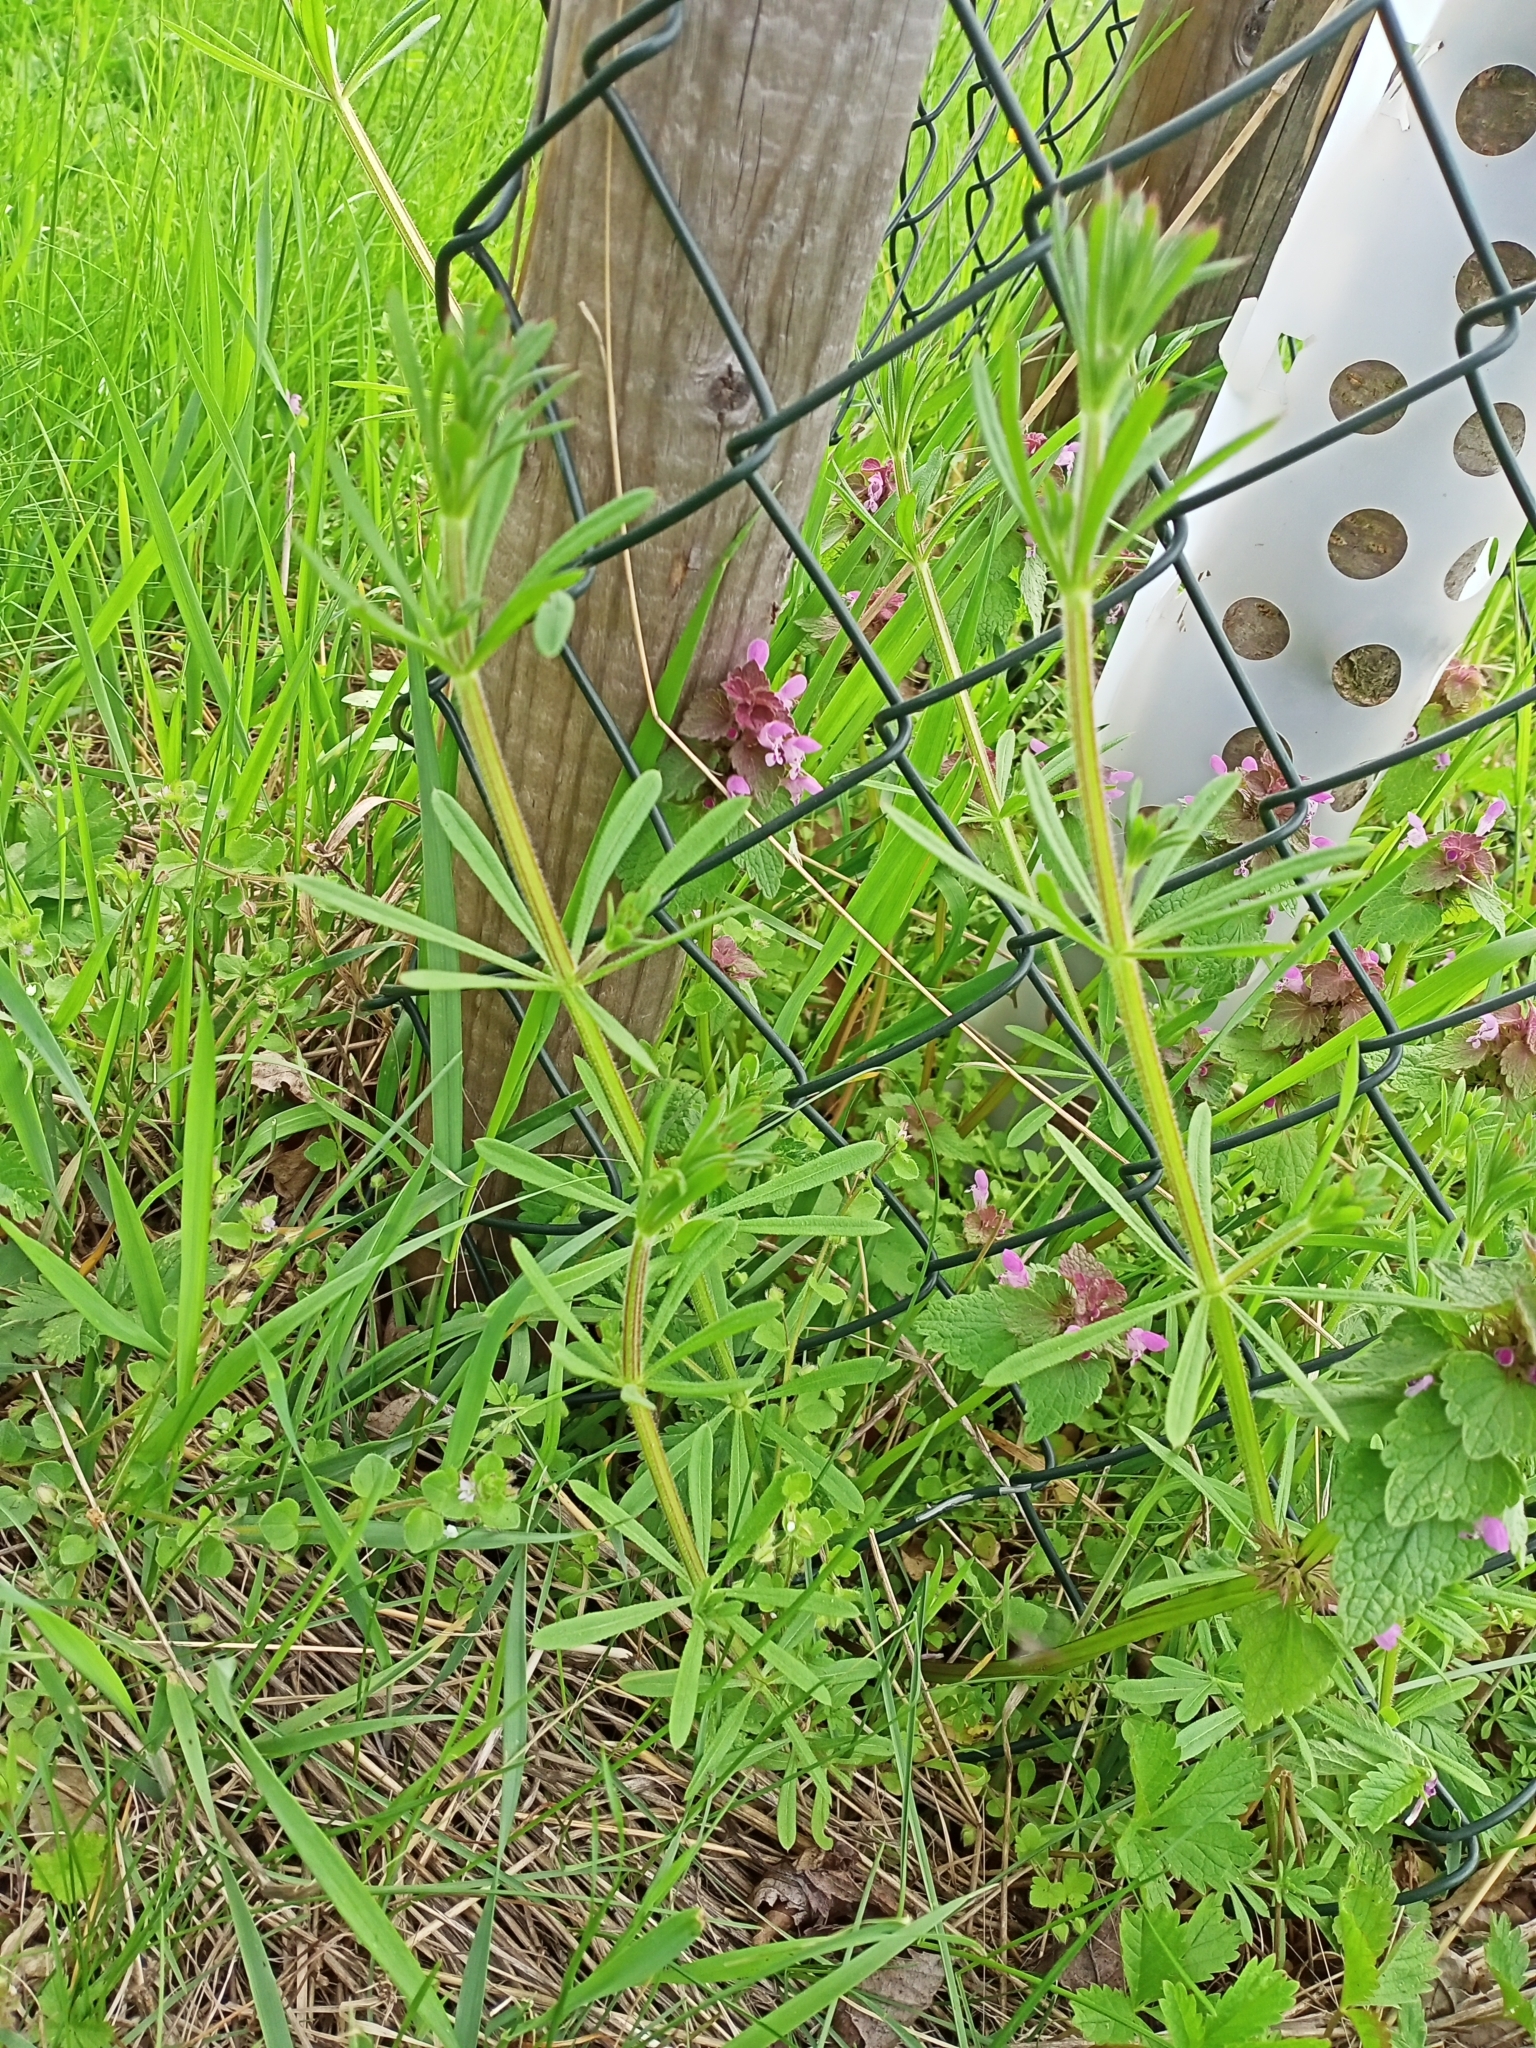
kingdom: Plantae
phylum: Tracheophyta
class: Magnoliopsida
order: Gentianales
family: Rubiaceae
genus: Galium
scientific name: Galium aparine
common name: Cleavers
